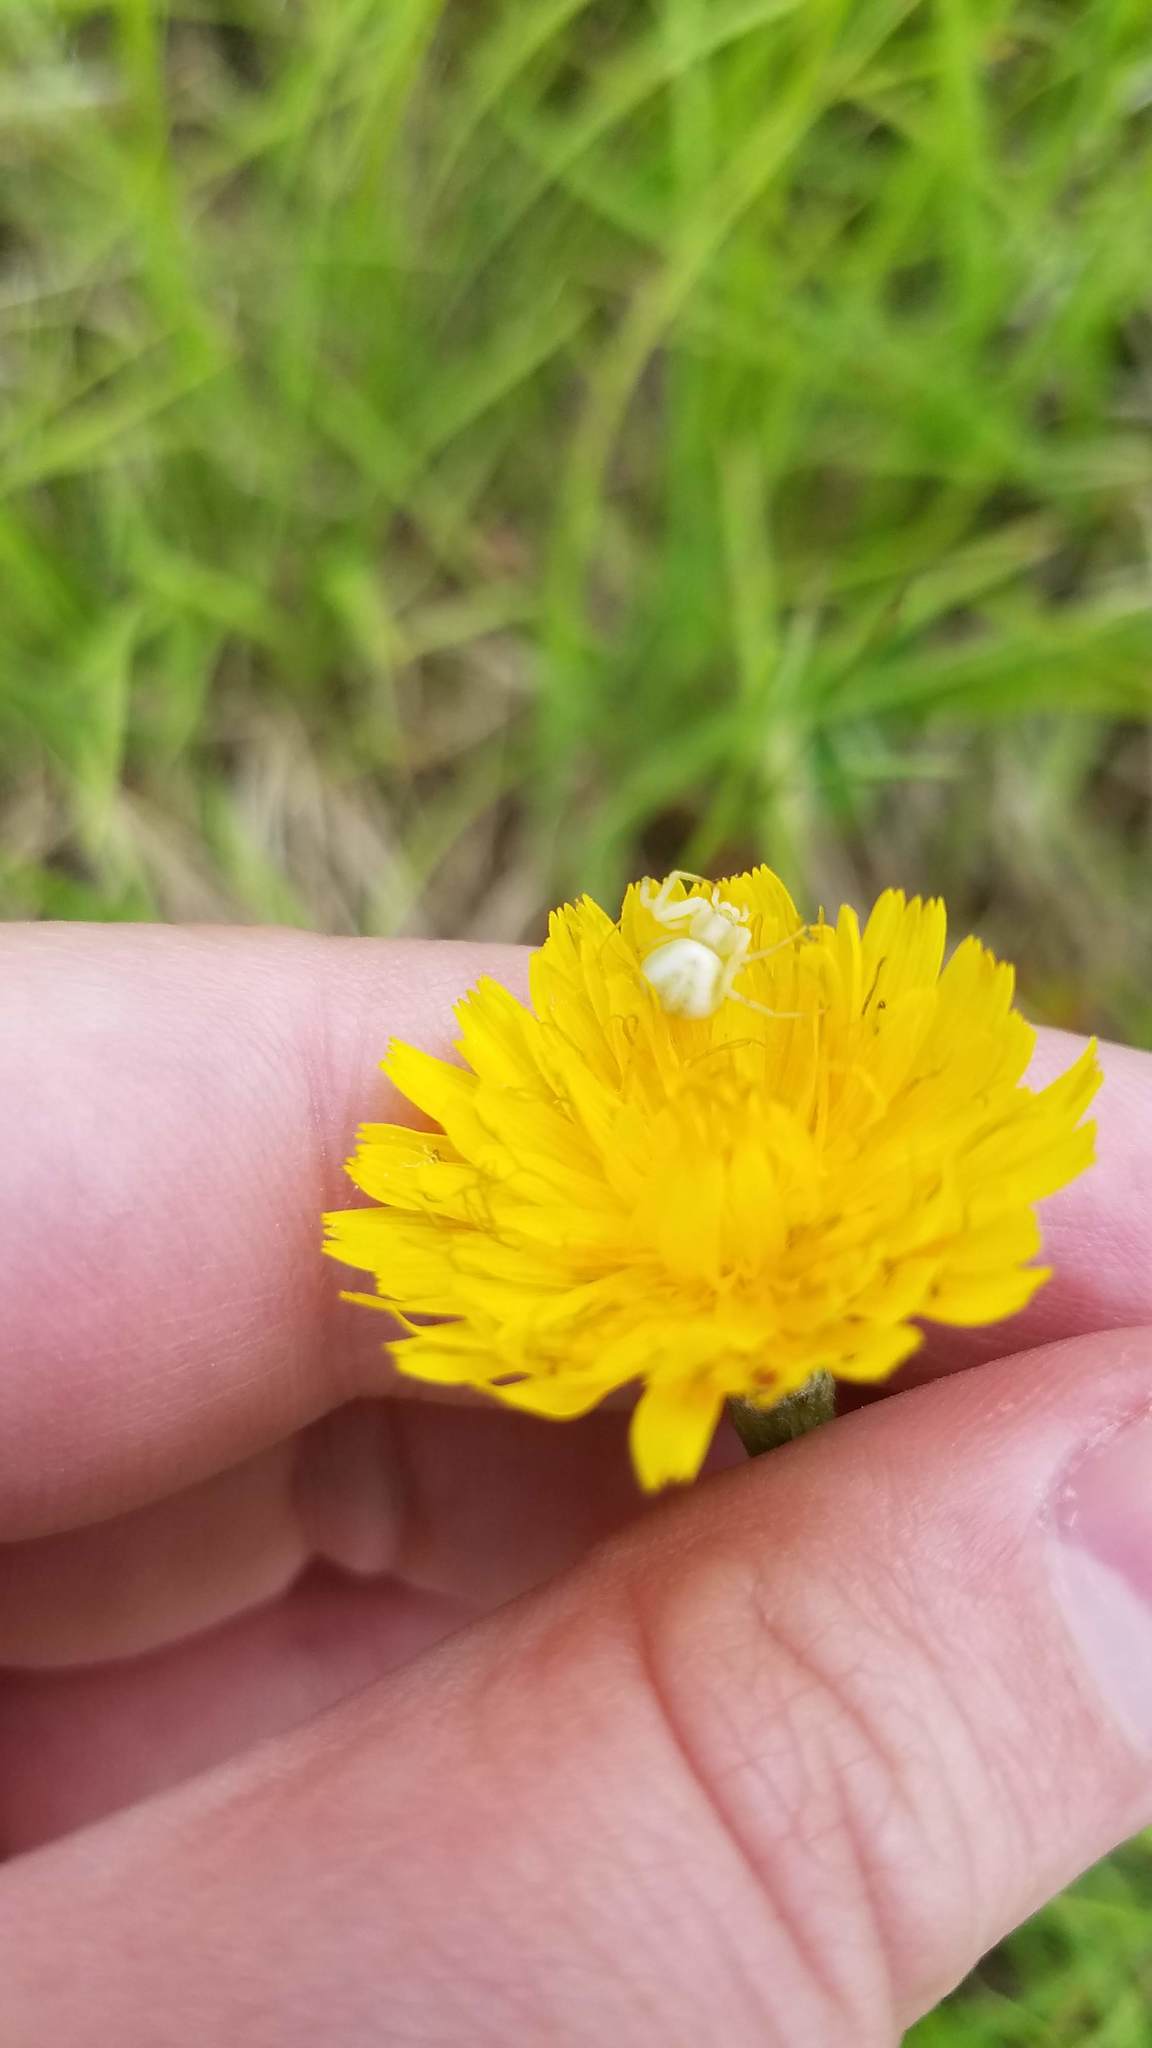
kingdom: Animalia
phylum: Arthropoda
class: Arachnida
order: Araneae
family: Thomisidae
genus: Misumena
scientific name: Misumena vatia
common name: Goldenrod crab spider
